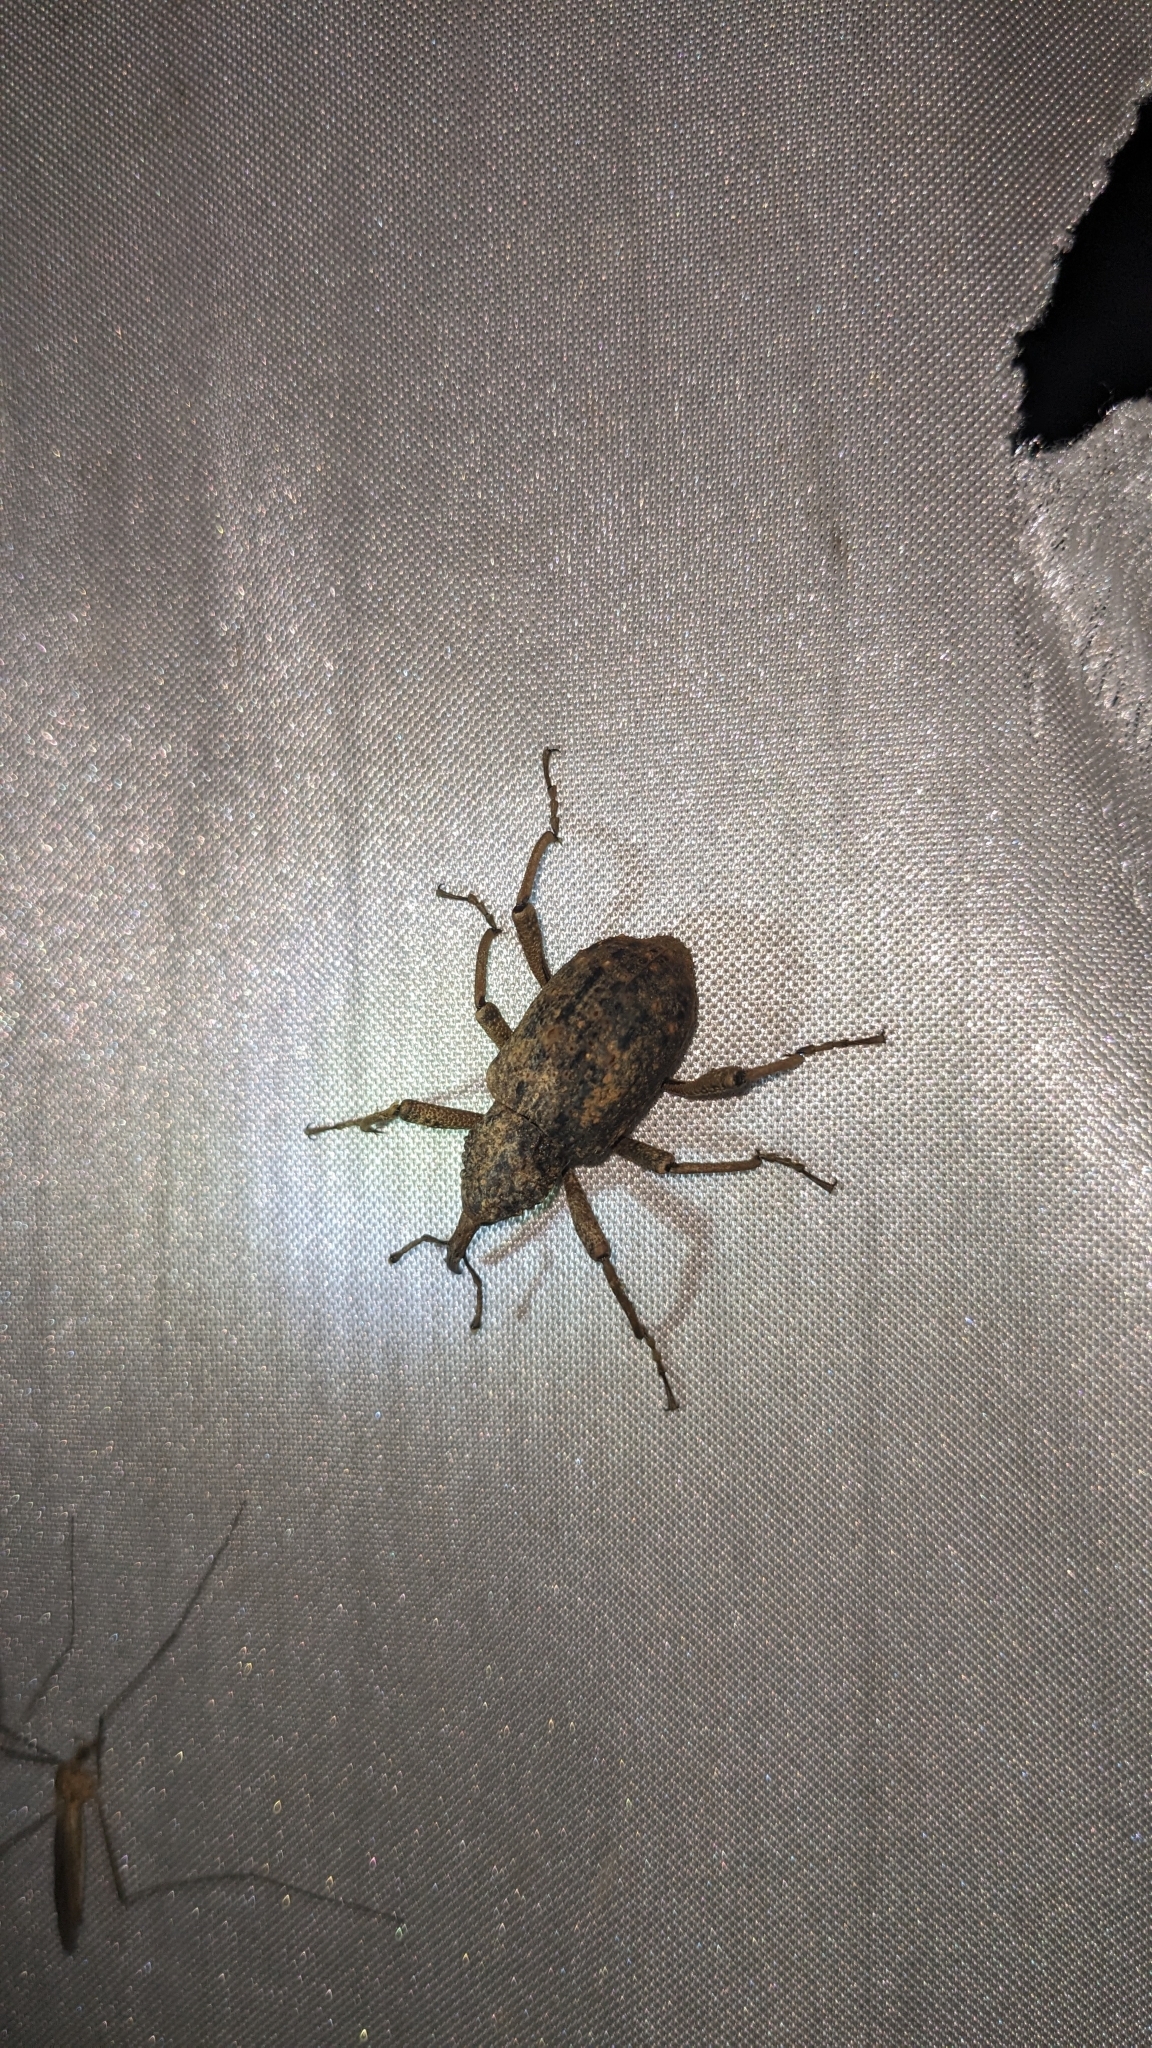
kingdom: Animalia
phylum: Arthropoda
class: Insecta
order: Coleoptera
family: Dryophthoridae
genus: Sipalinus
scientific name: Sipalinus gigas
